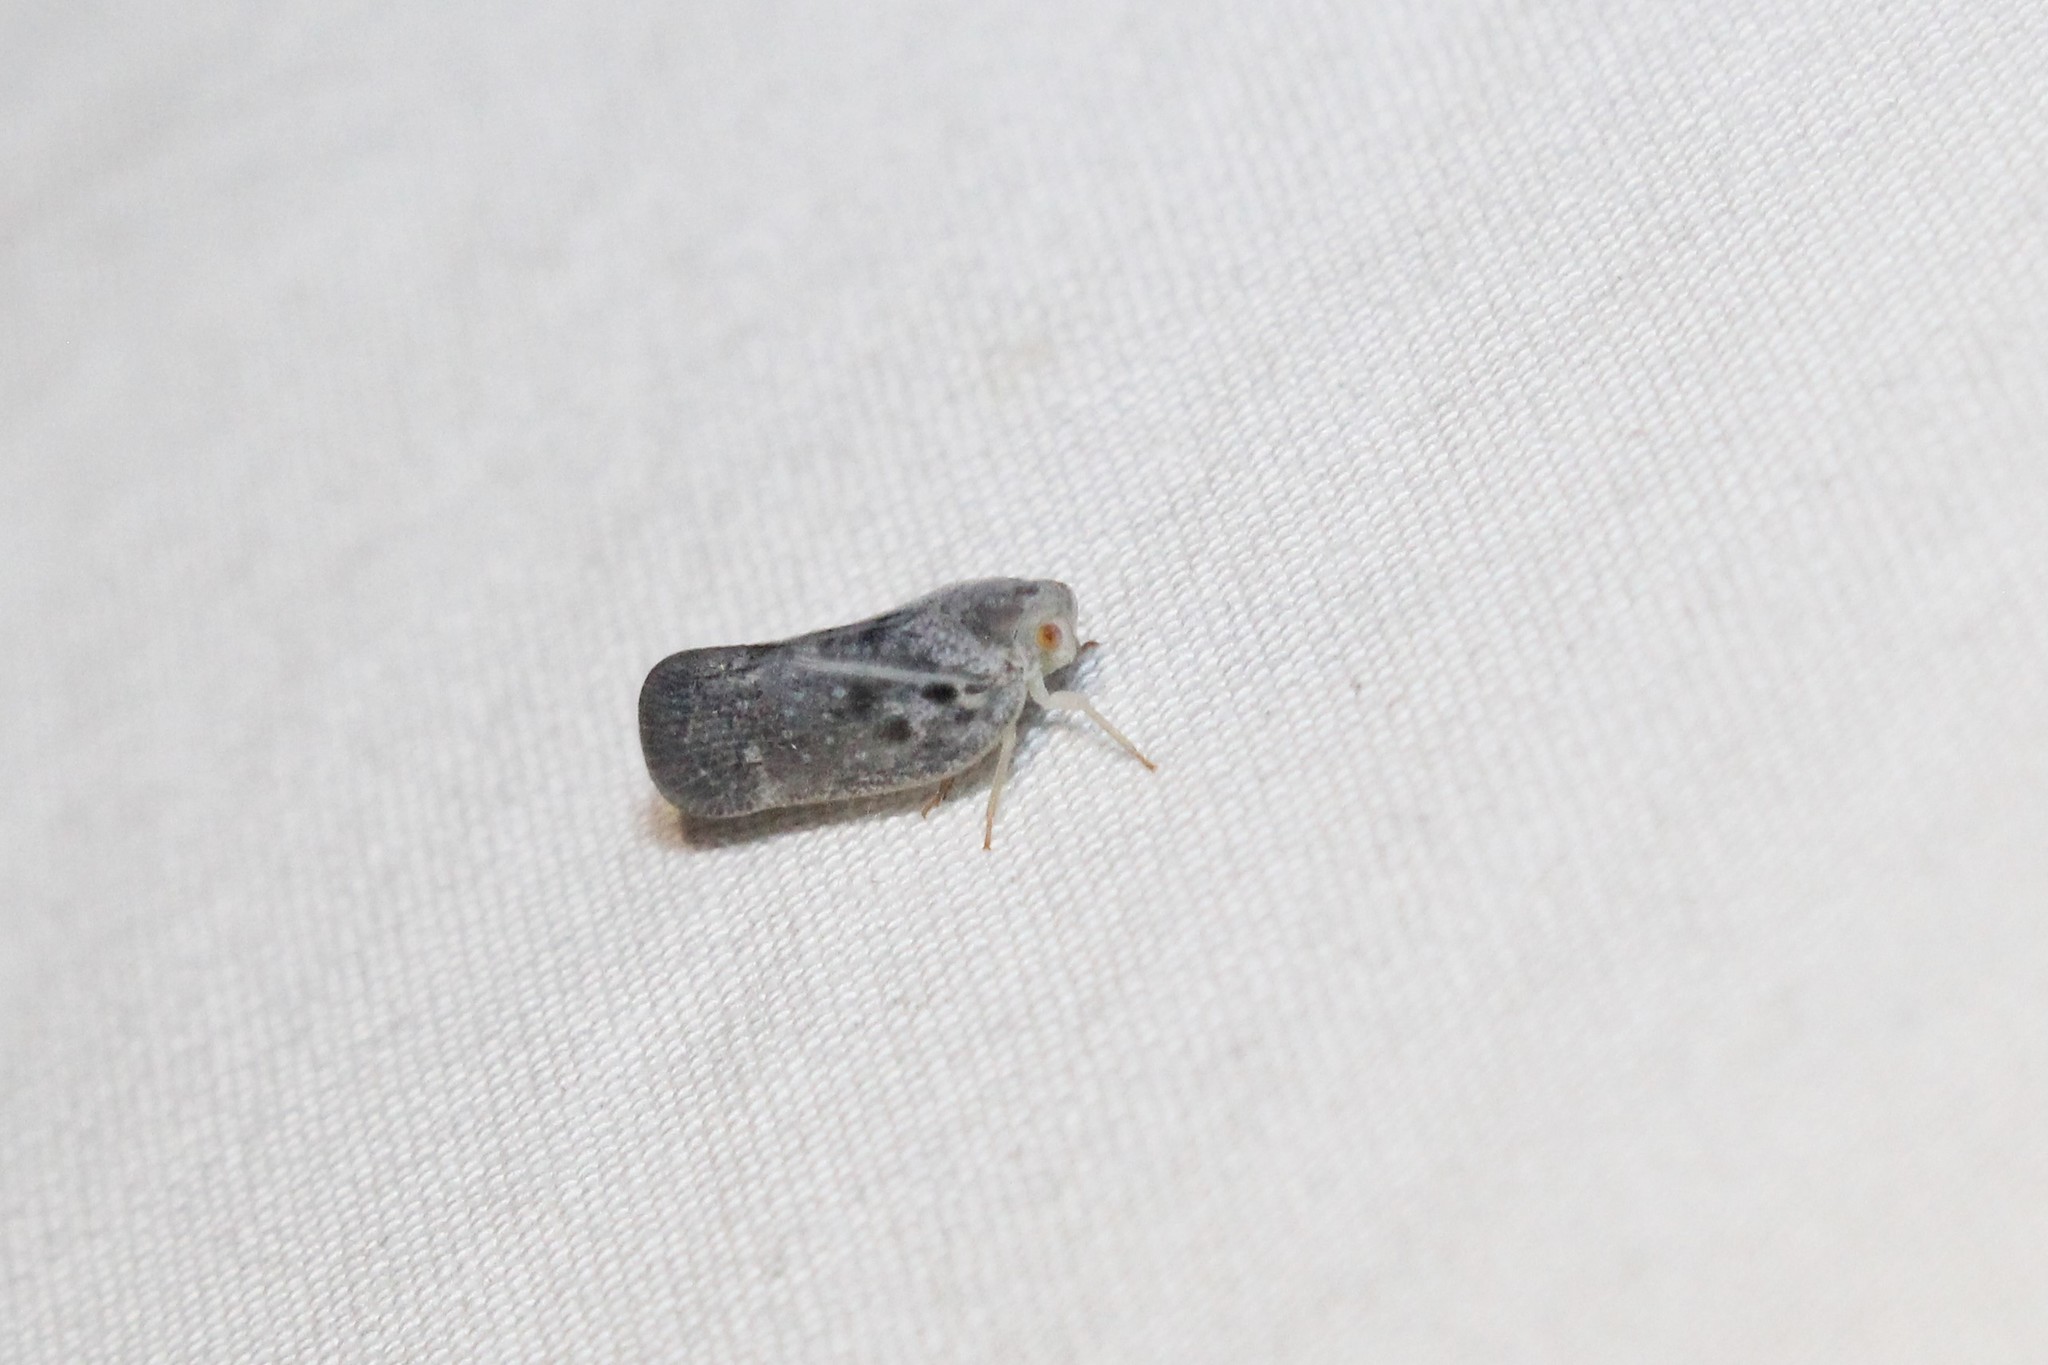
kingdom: Animalia
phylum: Arthropoda
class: Insecta
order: Hemiptera
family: Flatidae
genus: Metcalfa
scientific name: Metcalfa pruinosa
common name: Citrus flatid planthopper
